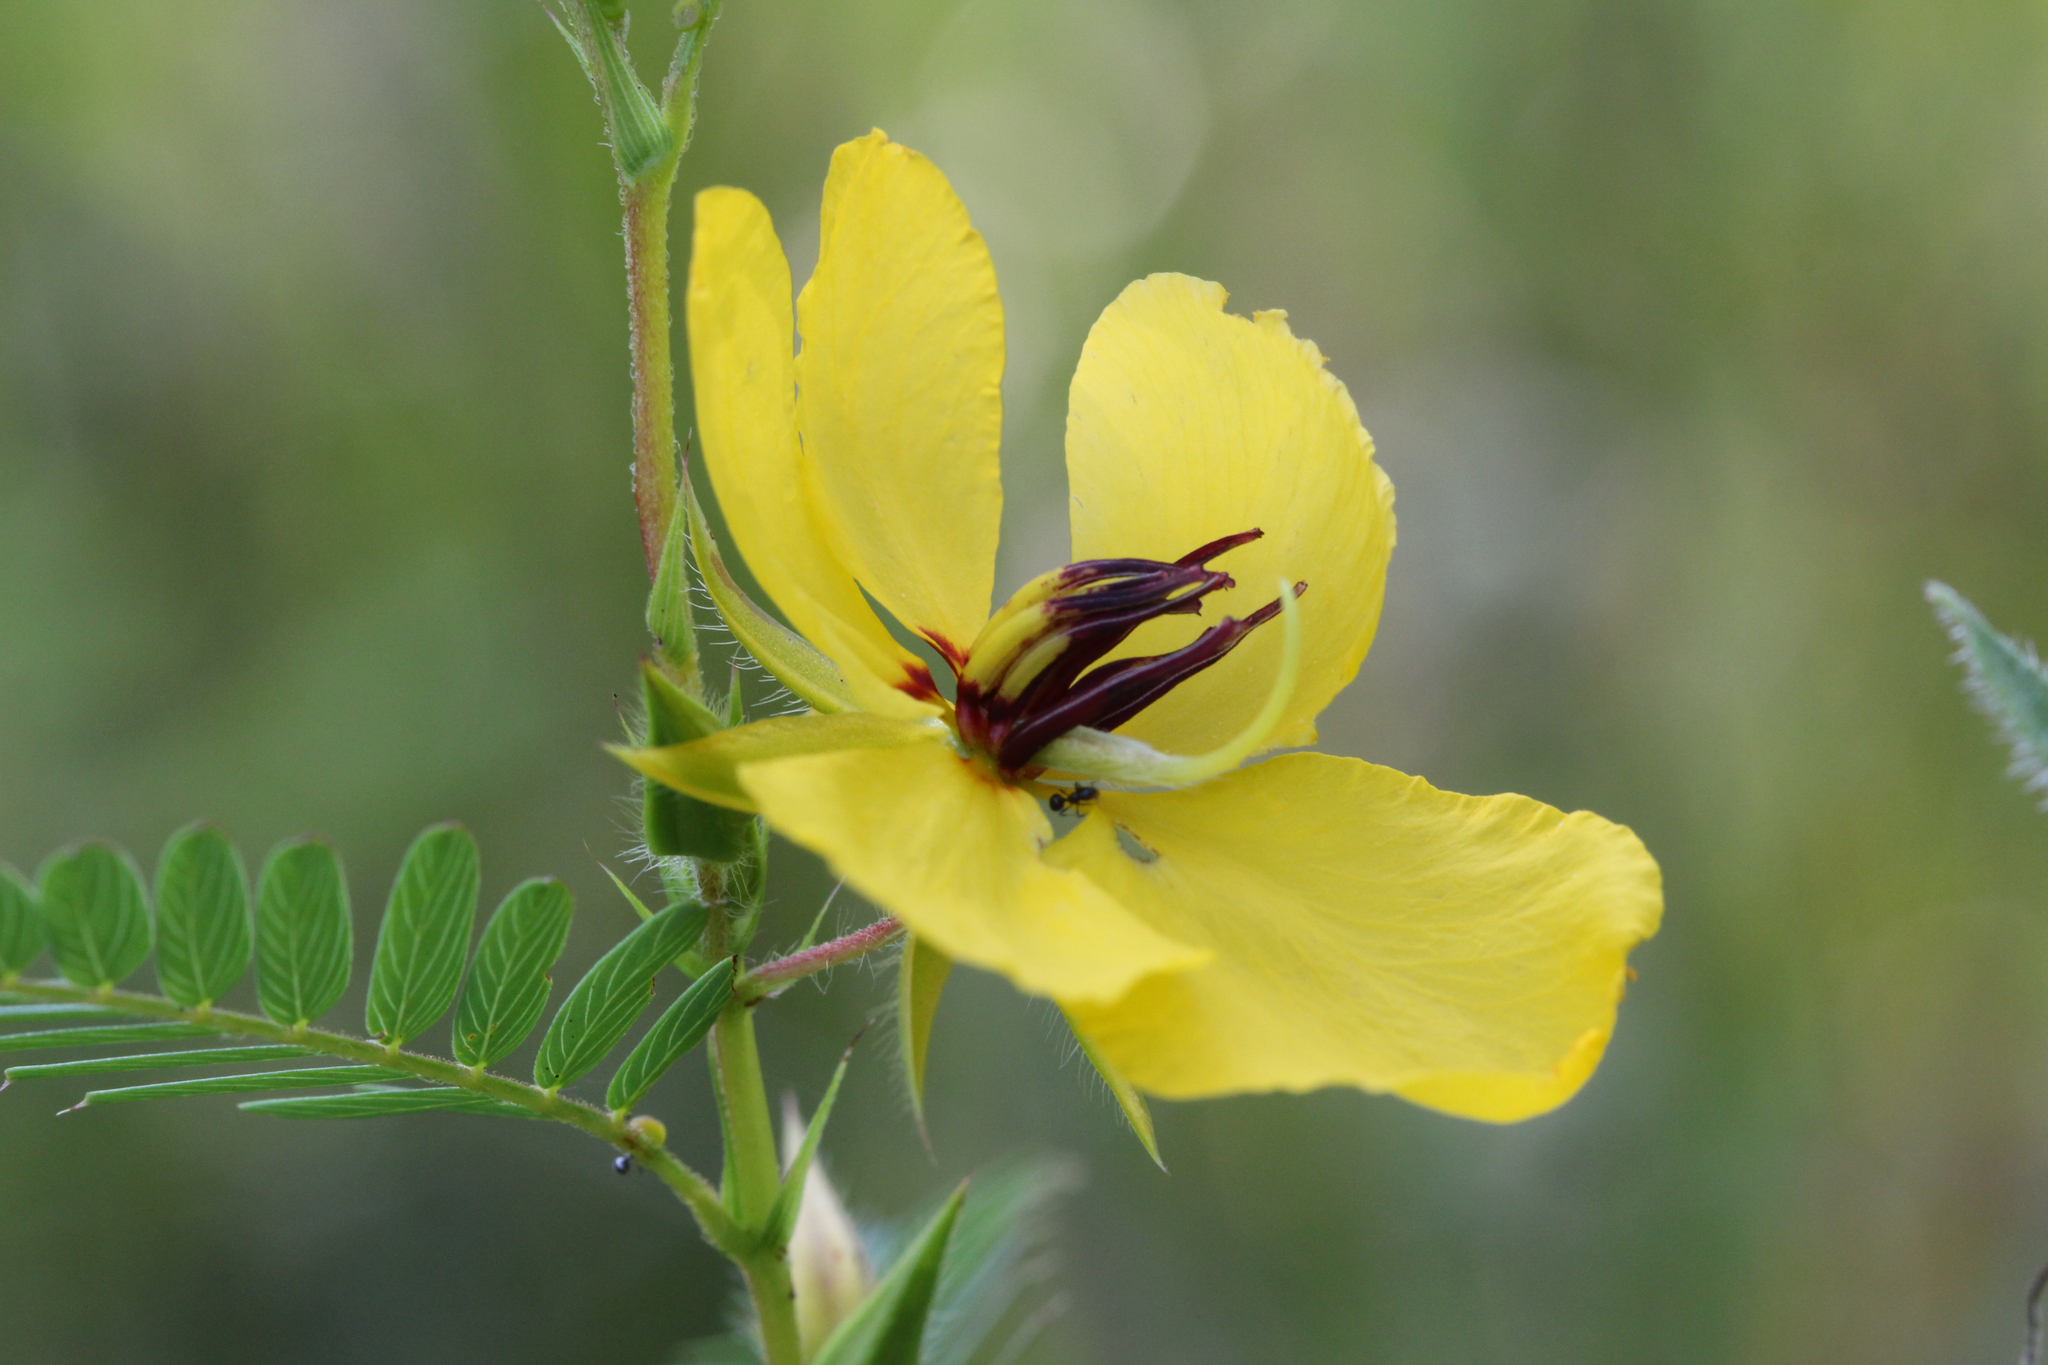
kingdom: Plantae
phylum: Tracheophyta
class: Magnoliopsida
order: Fabales
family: Fabaceae
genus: Chamaecrista
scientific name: Chamaecrista fasciculata
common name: Golden cassia
